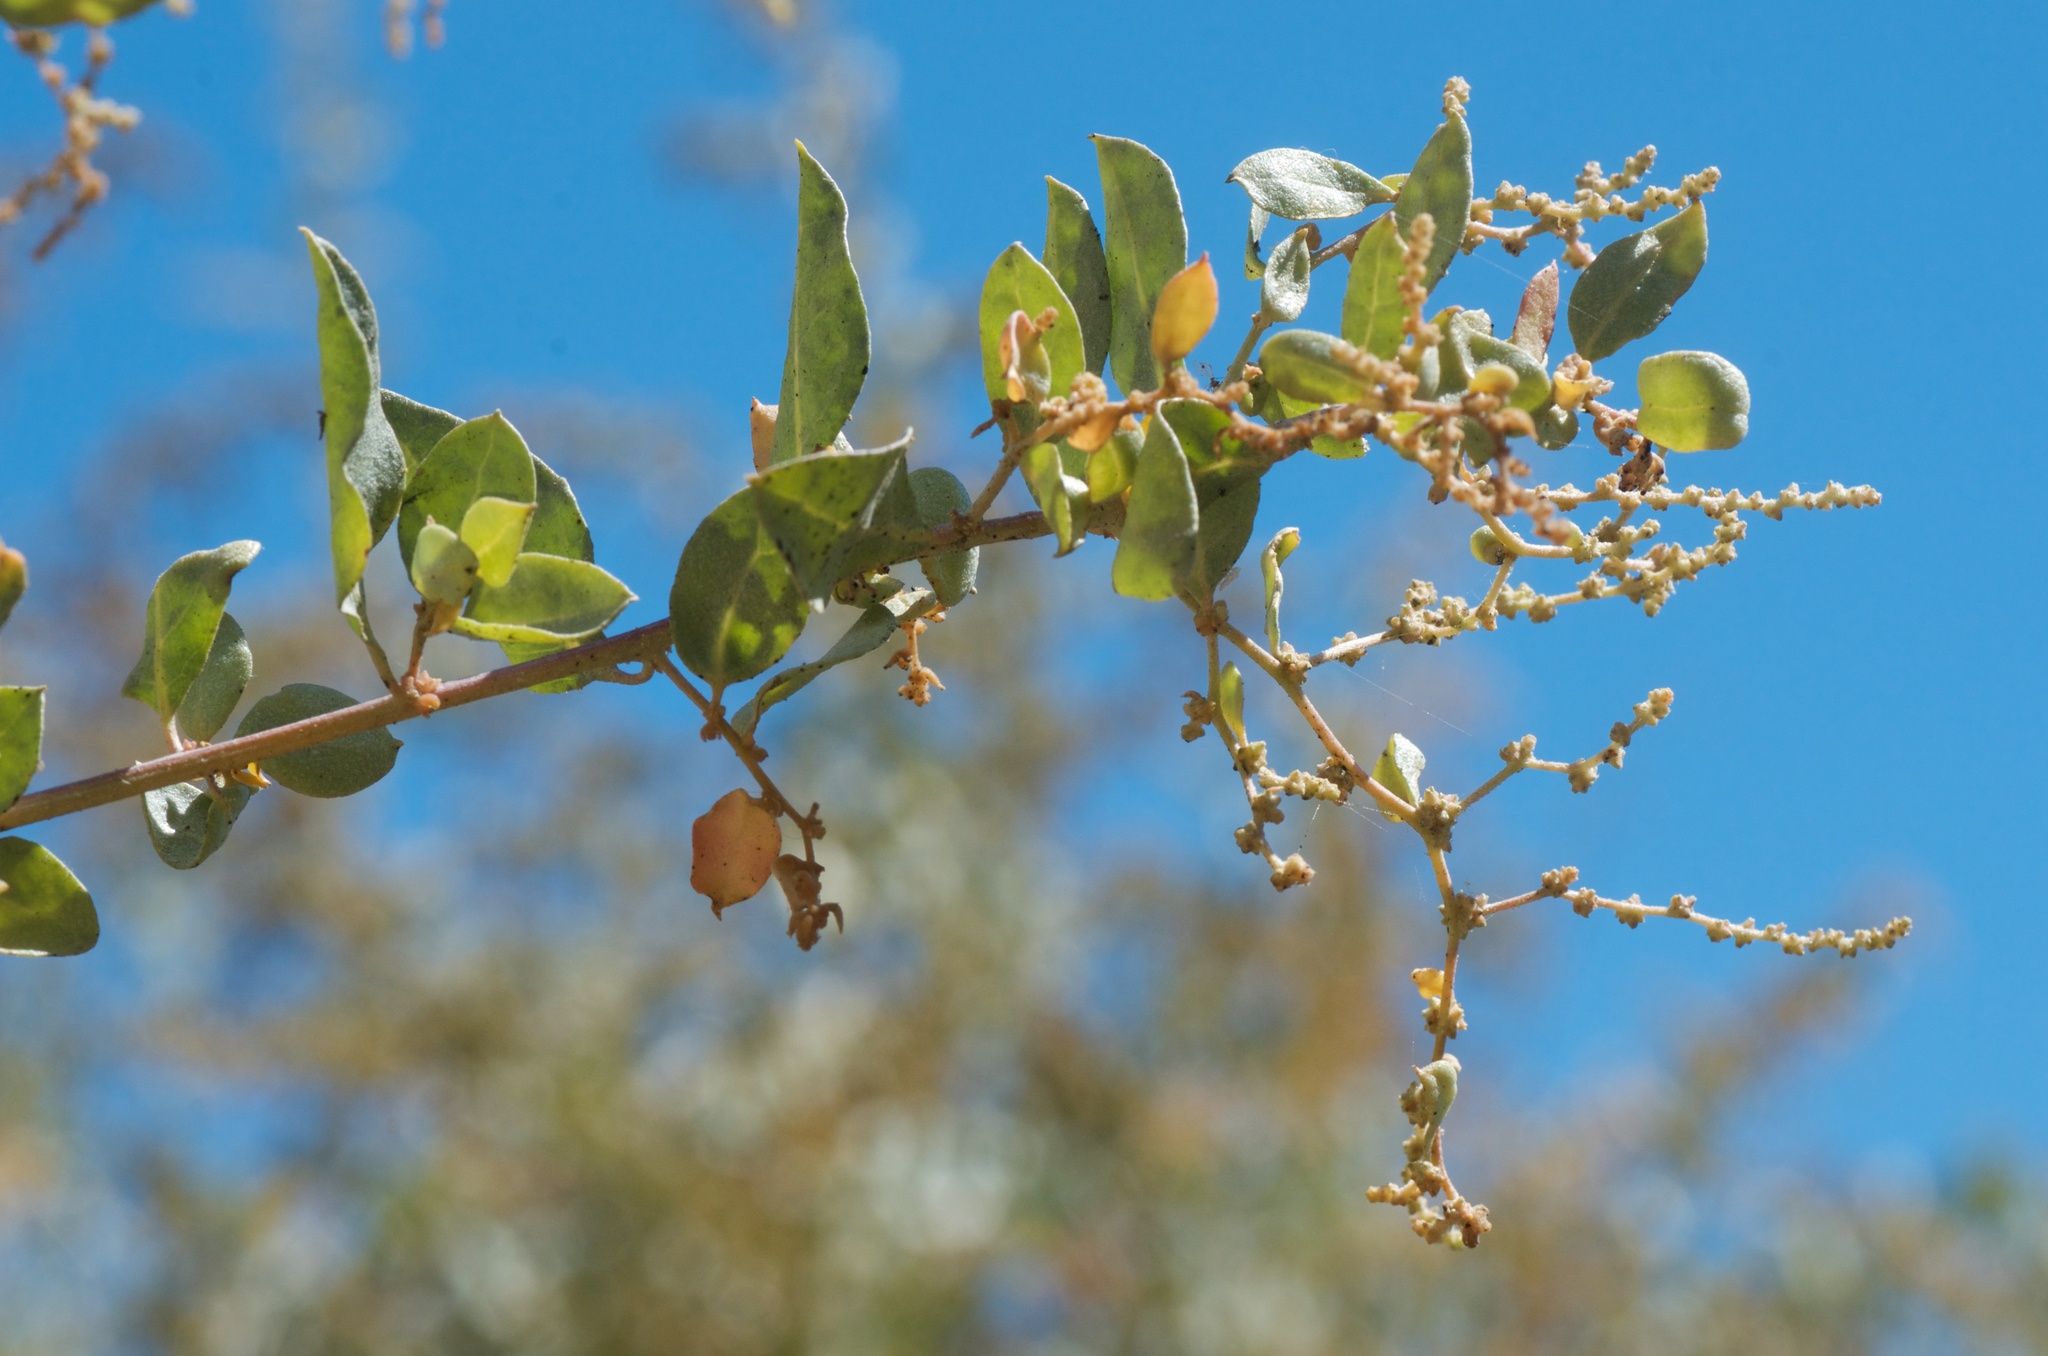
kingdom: Animalia
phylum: Arthropoda
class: Insecta
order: Diptera
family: Cecidomyiidae
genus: Asphondylia
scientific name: Asphondylia atriplicis
